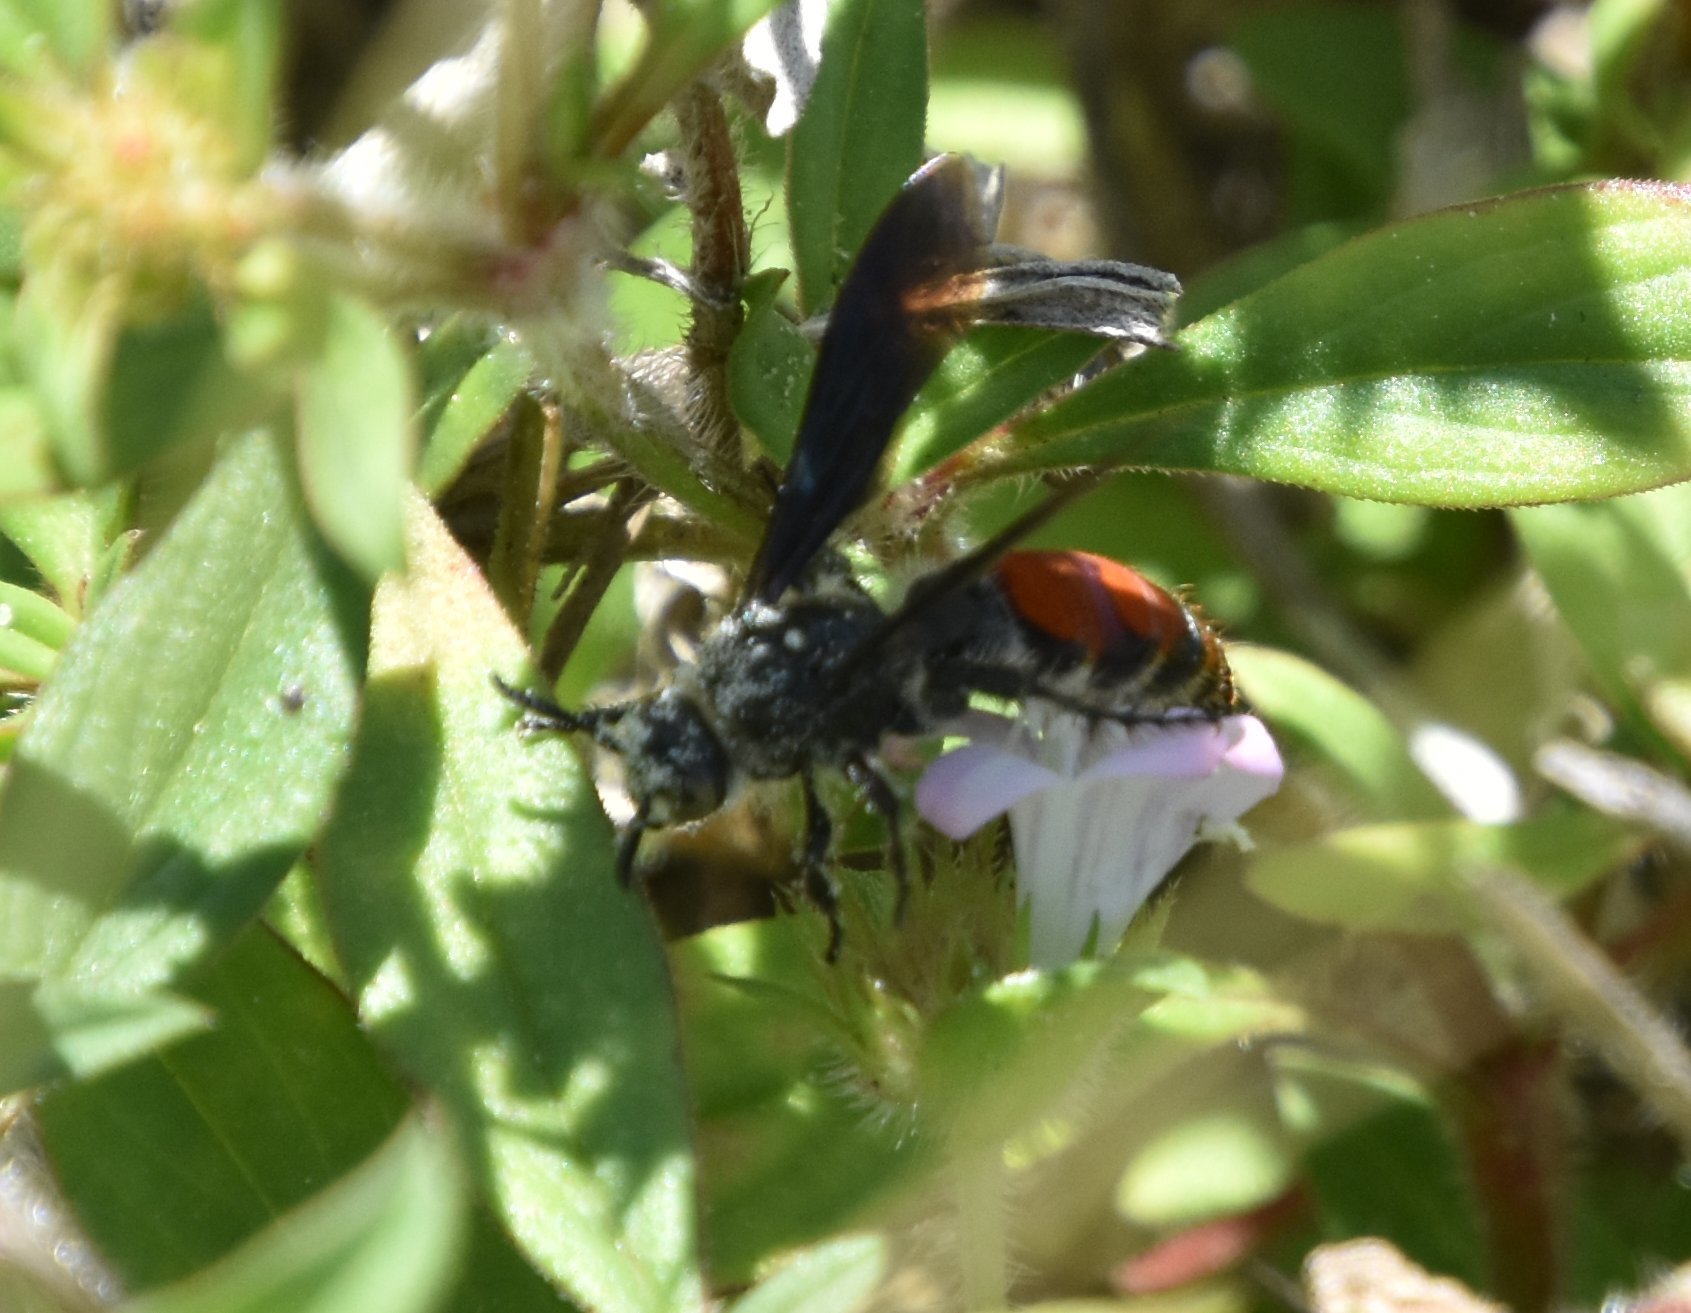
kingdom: Animalia
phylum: Arthropoda
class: Insecta
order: Hymenoptera
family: Scoliidae
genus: Dielis
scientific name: Dielis dorsata
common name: Scoliid wasp
